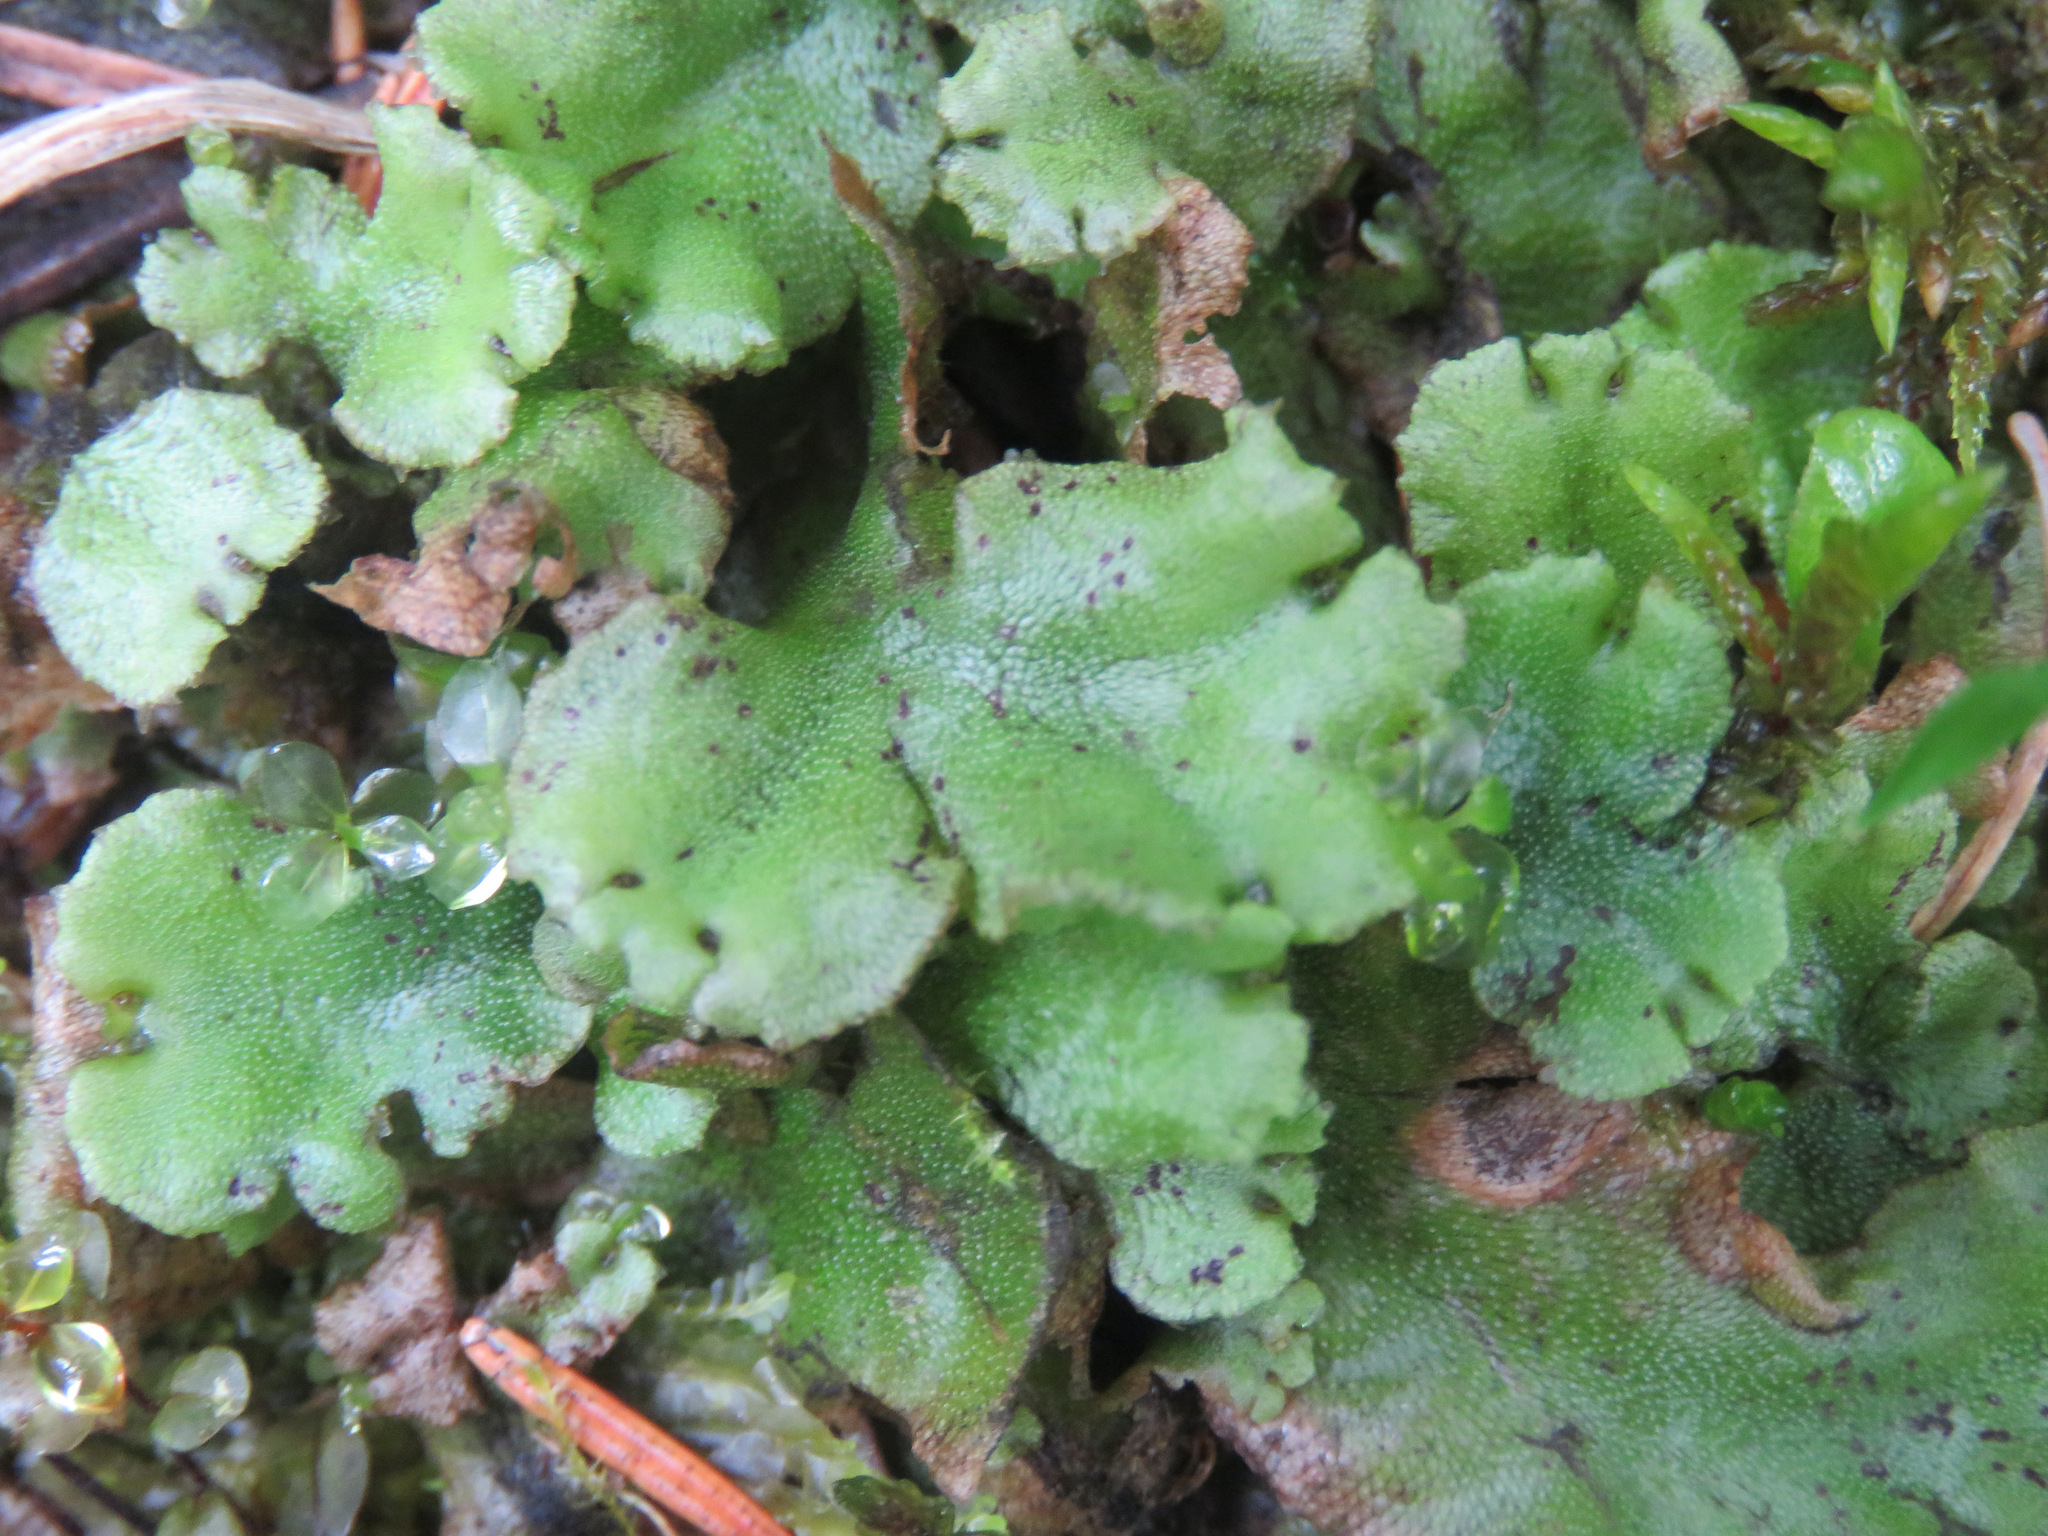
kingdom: Plantae
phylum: Marchantiophyta
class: Marchantiopsida
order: Marchantiales
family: Marchantiaceae
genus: Marchantia
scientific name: Marchantia polymorpha
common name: Common liverwort
